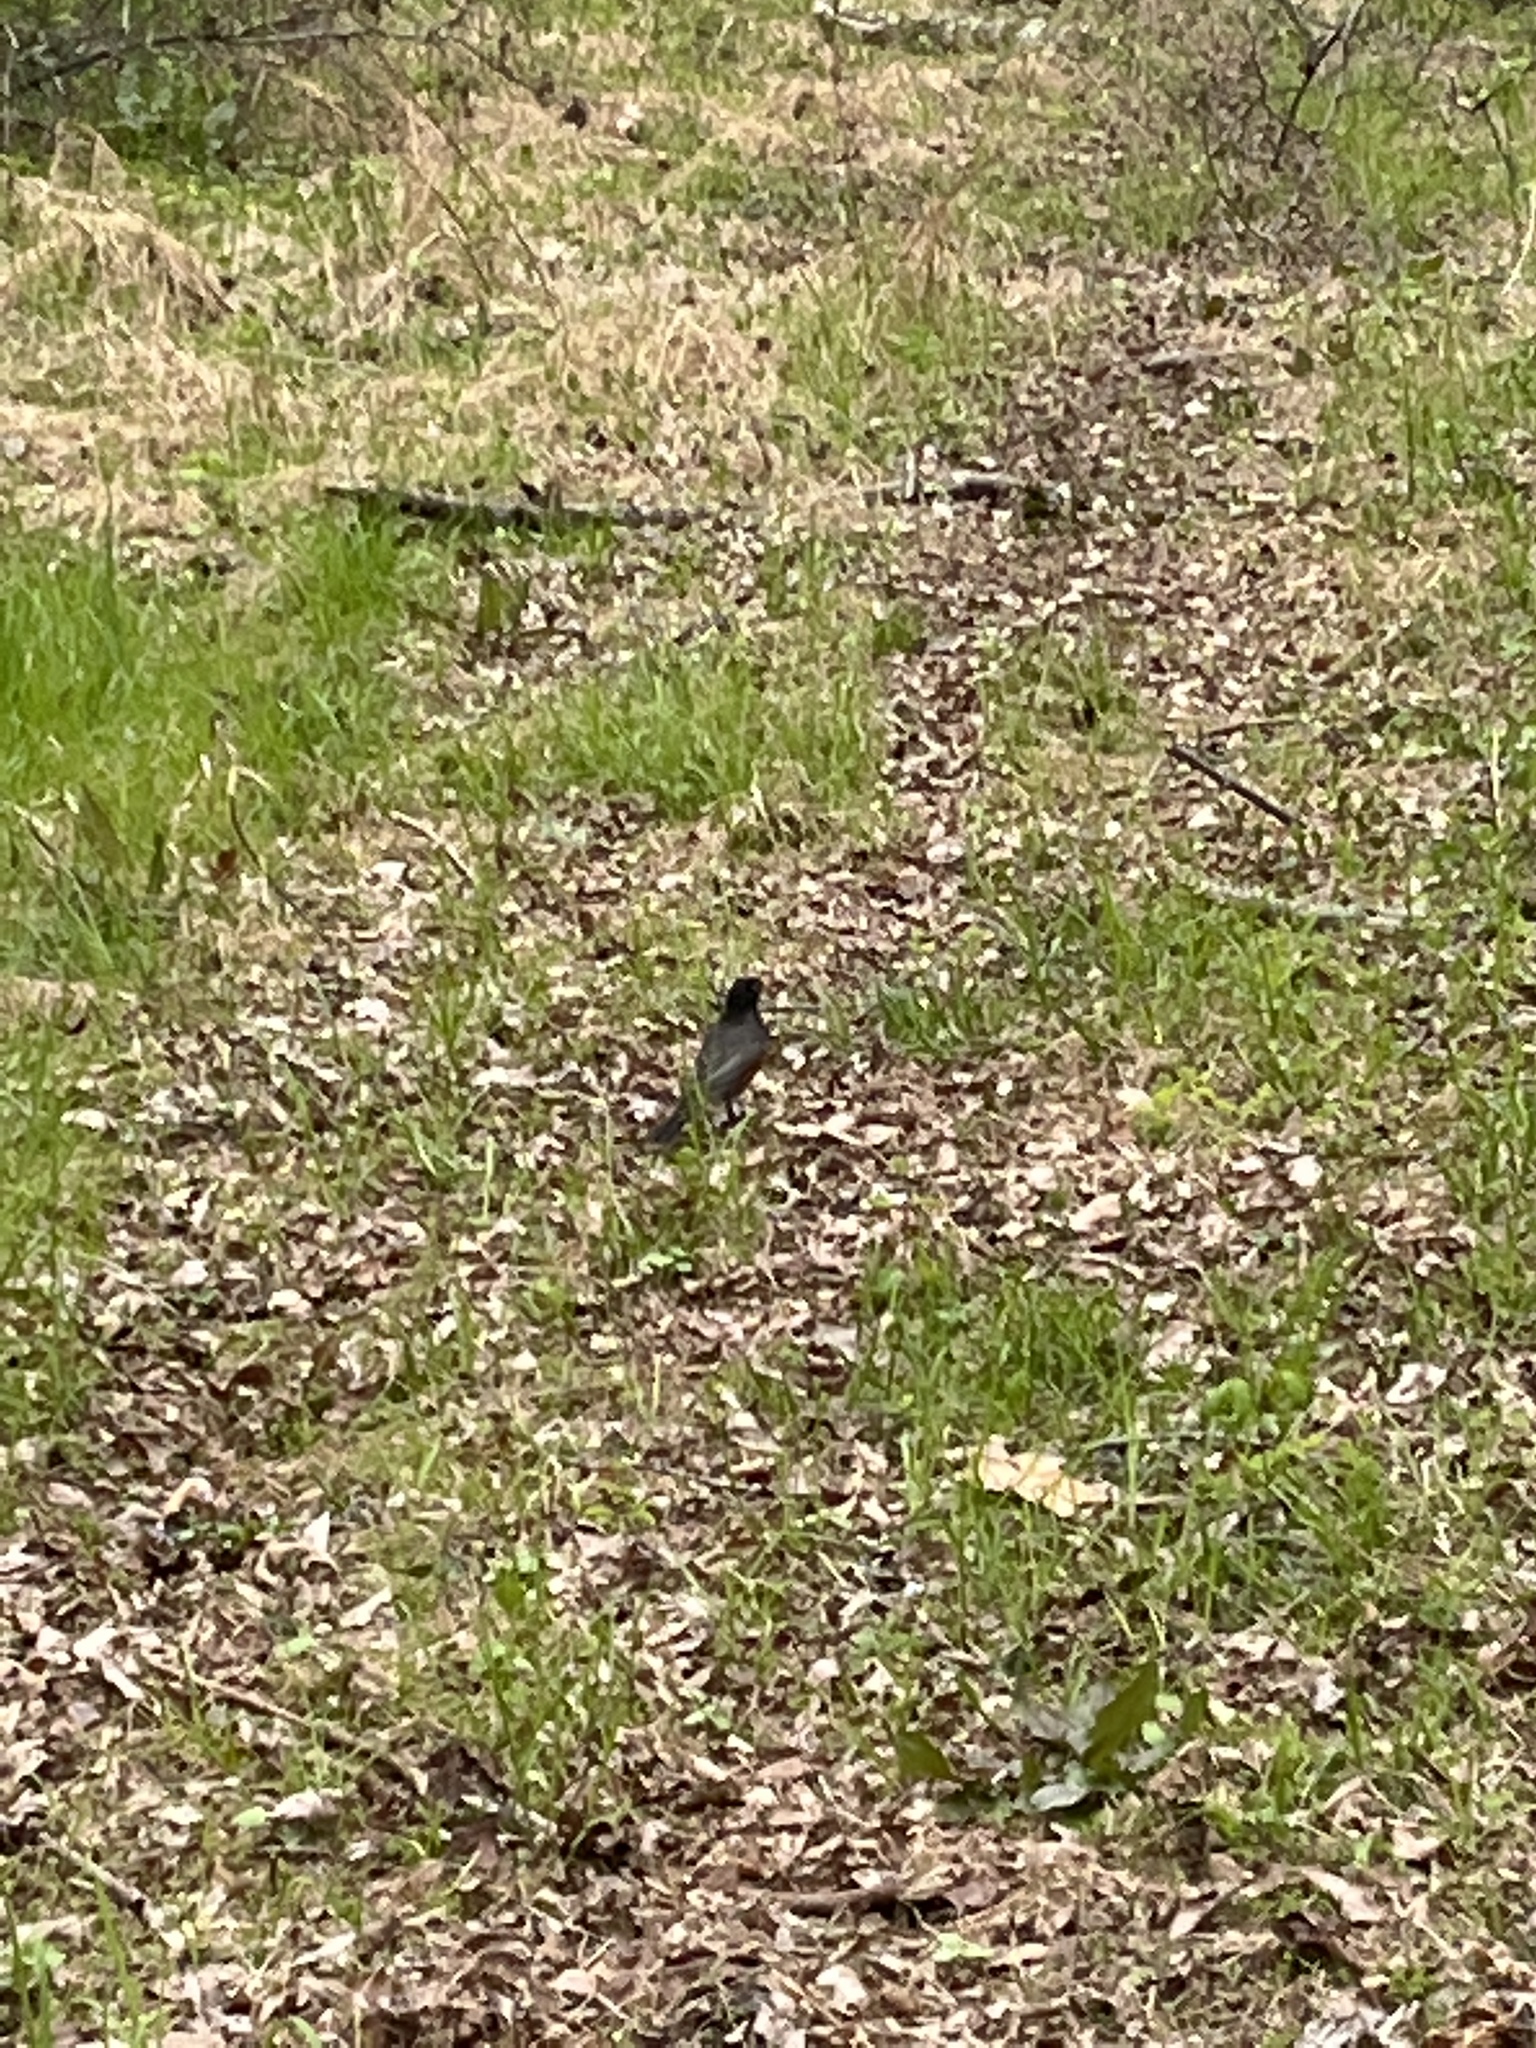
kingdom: Animalia
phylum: Chordata
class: Aves
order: Passeriformes
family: Turdidae
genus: Turdus
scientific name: Turdus migratorius
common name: American robin
